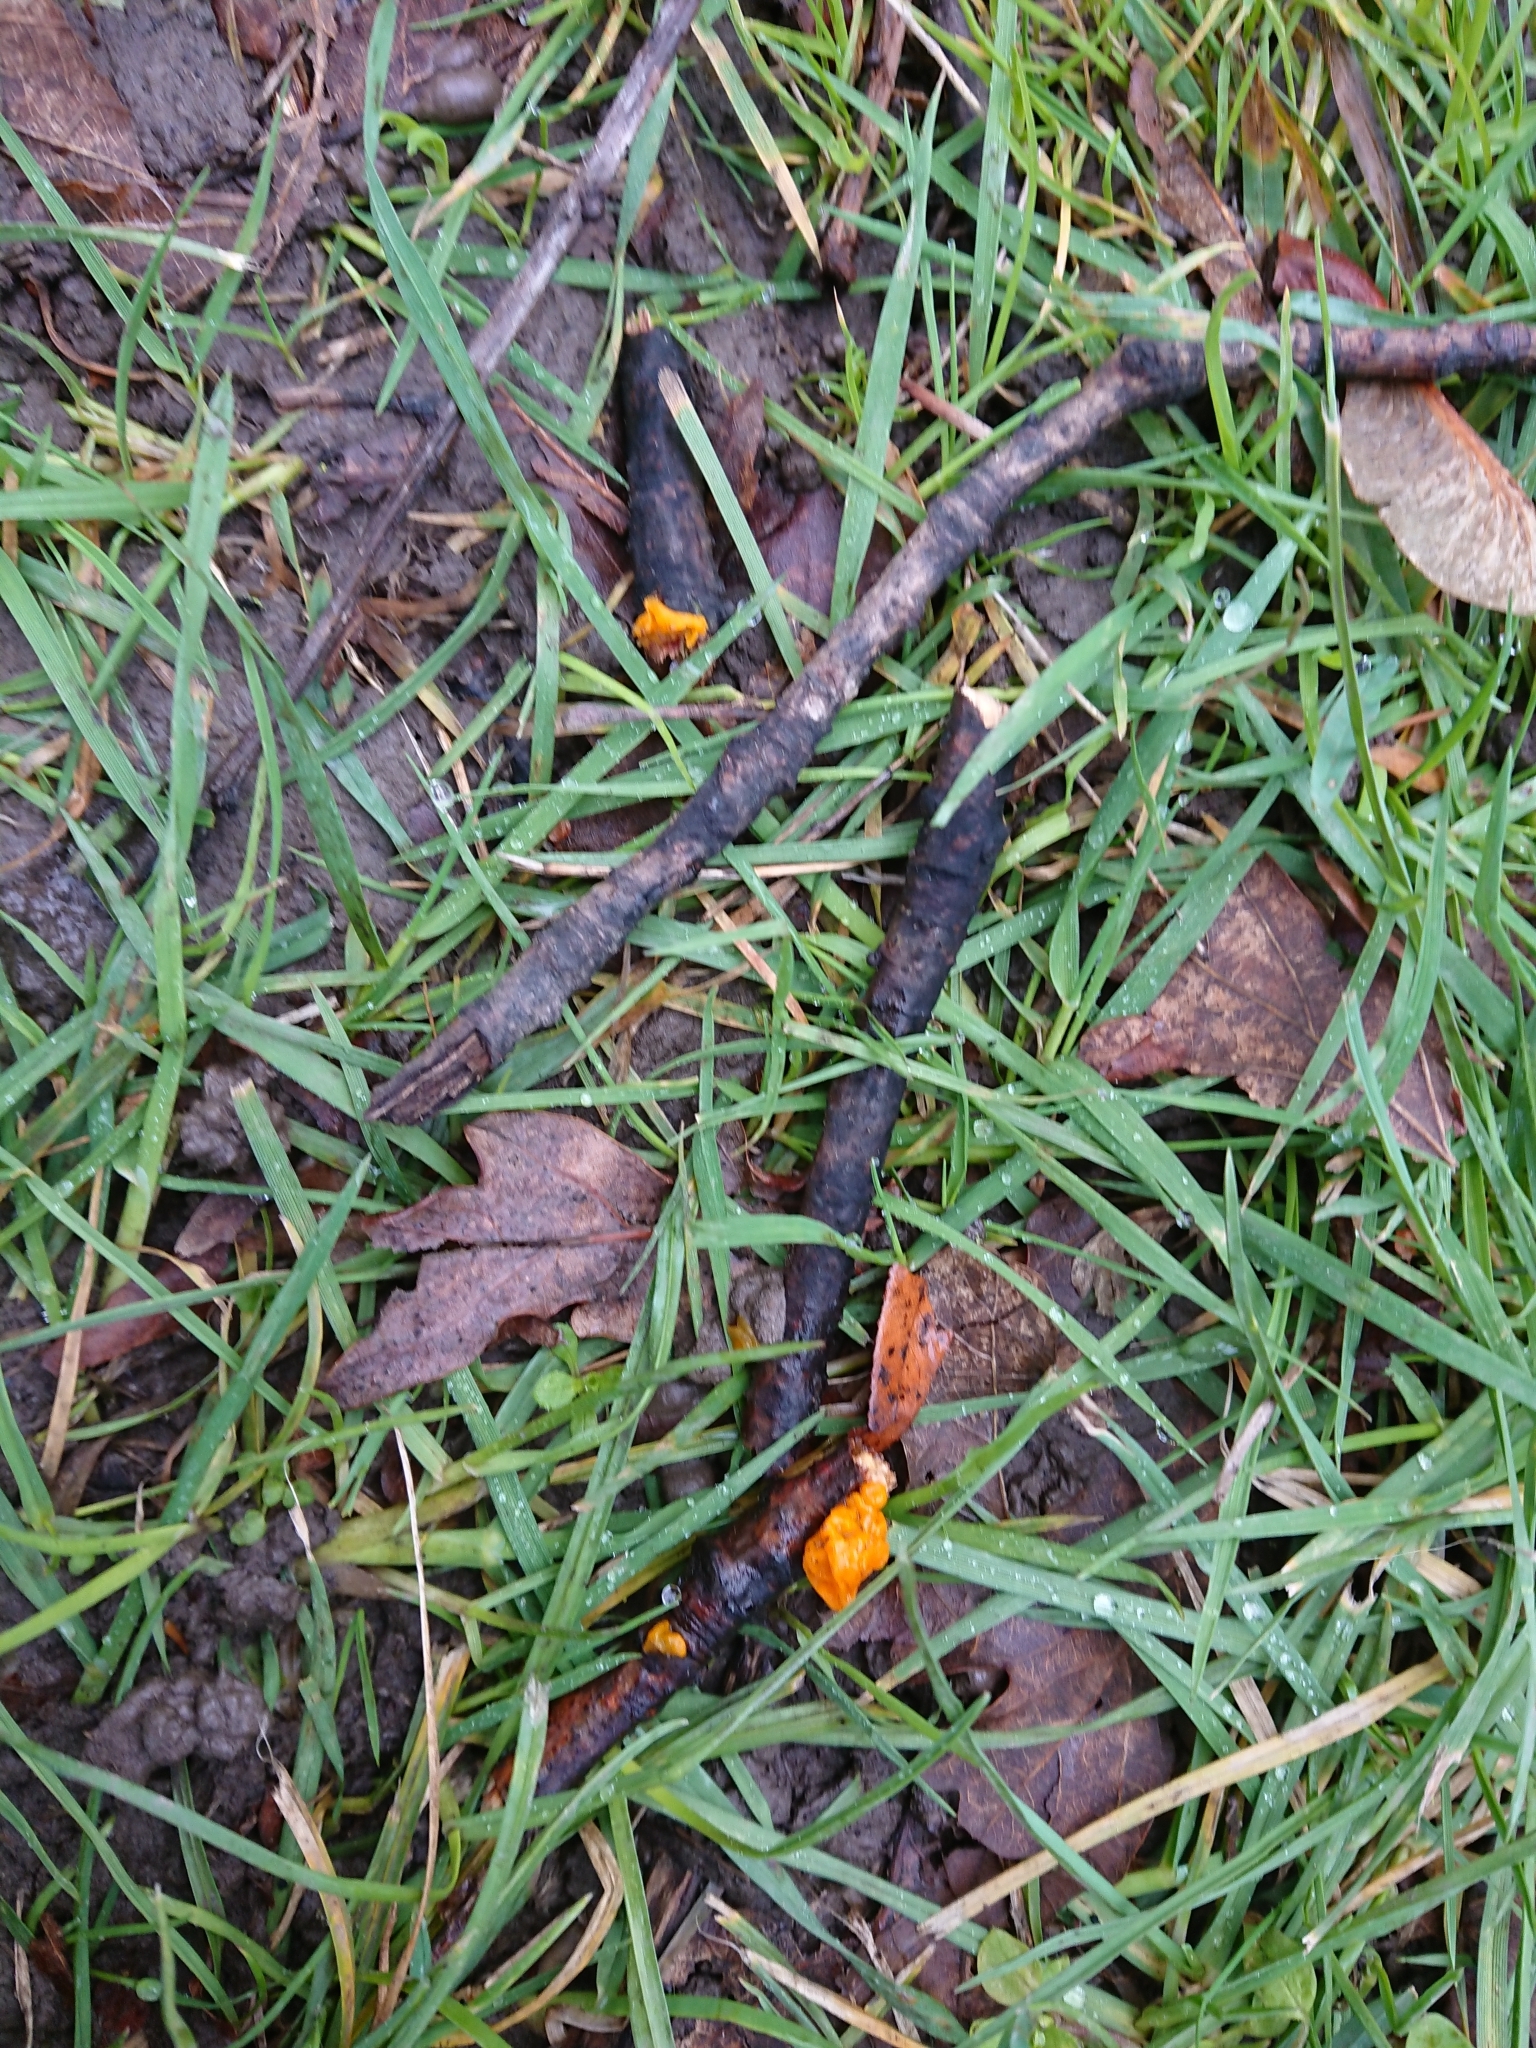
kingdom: Fungi
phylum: Basidiomycota
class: Tremellomycetes
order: Tremellales
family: Tremellaceae
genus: Tremella
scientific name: Tremella mesenterica
